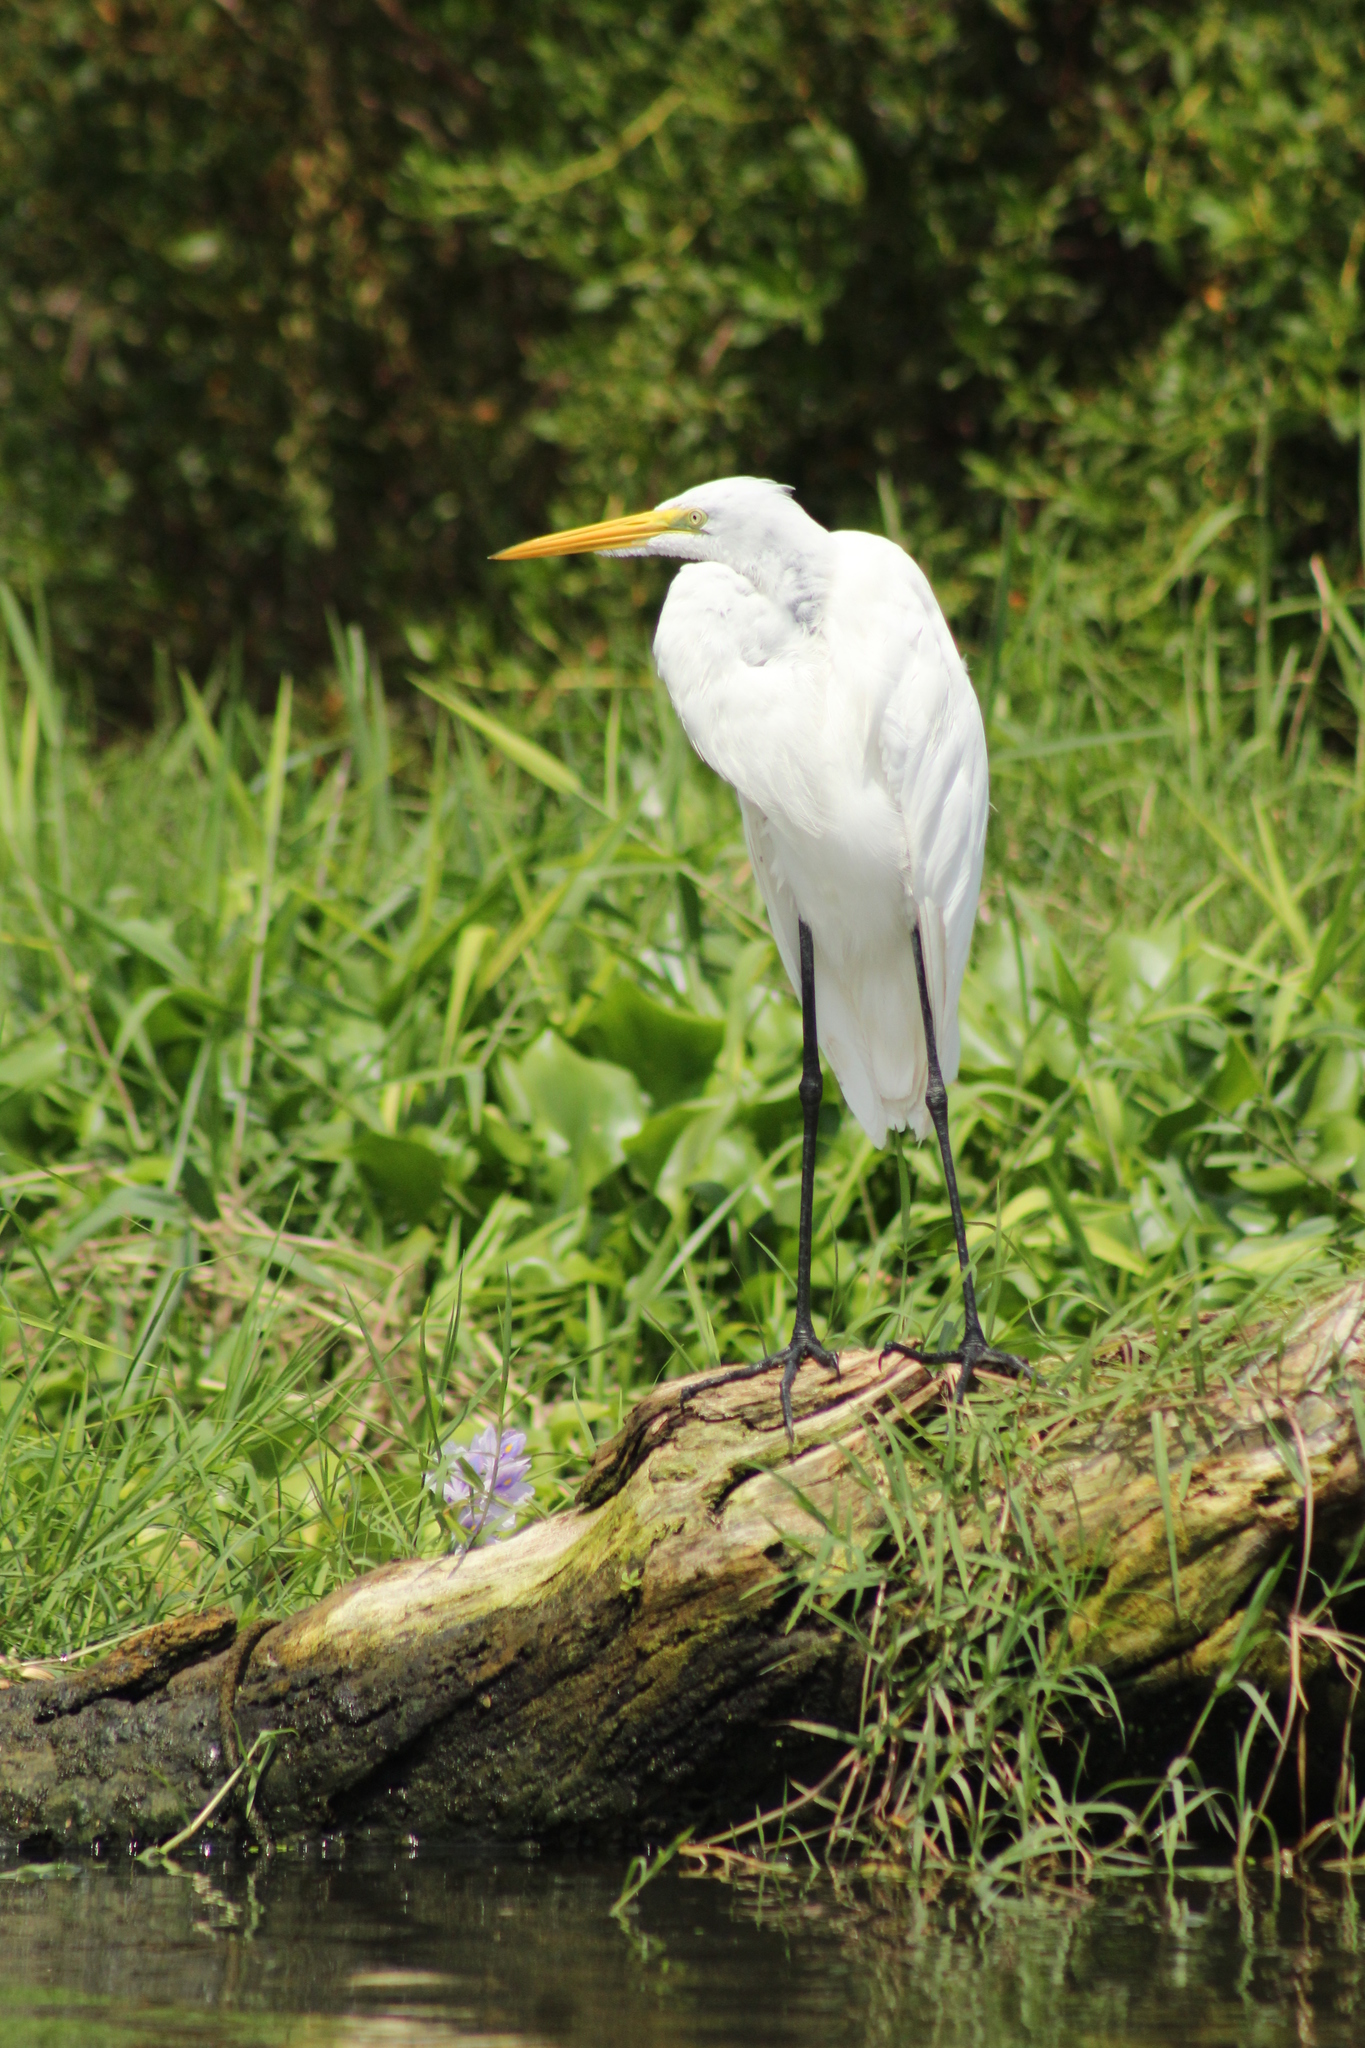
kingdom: Animalia
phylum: Chordata
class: Aves
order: Pelecaniformes
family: Ardeidae
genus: Ardea
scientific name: Ardea alba
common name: Great egret
